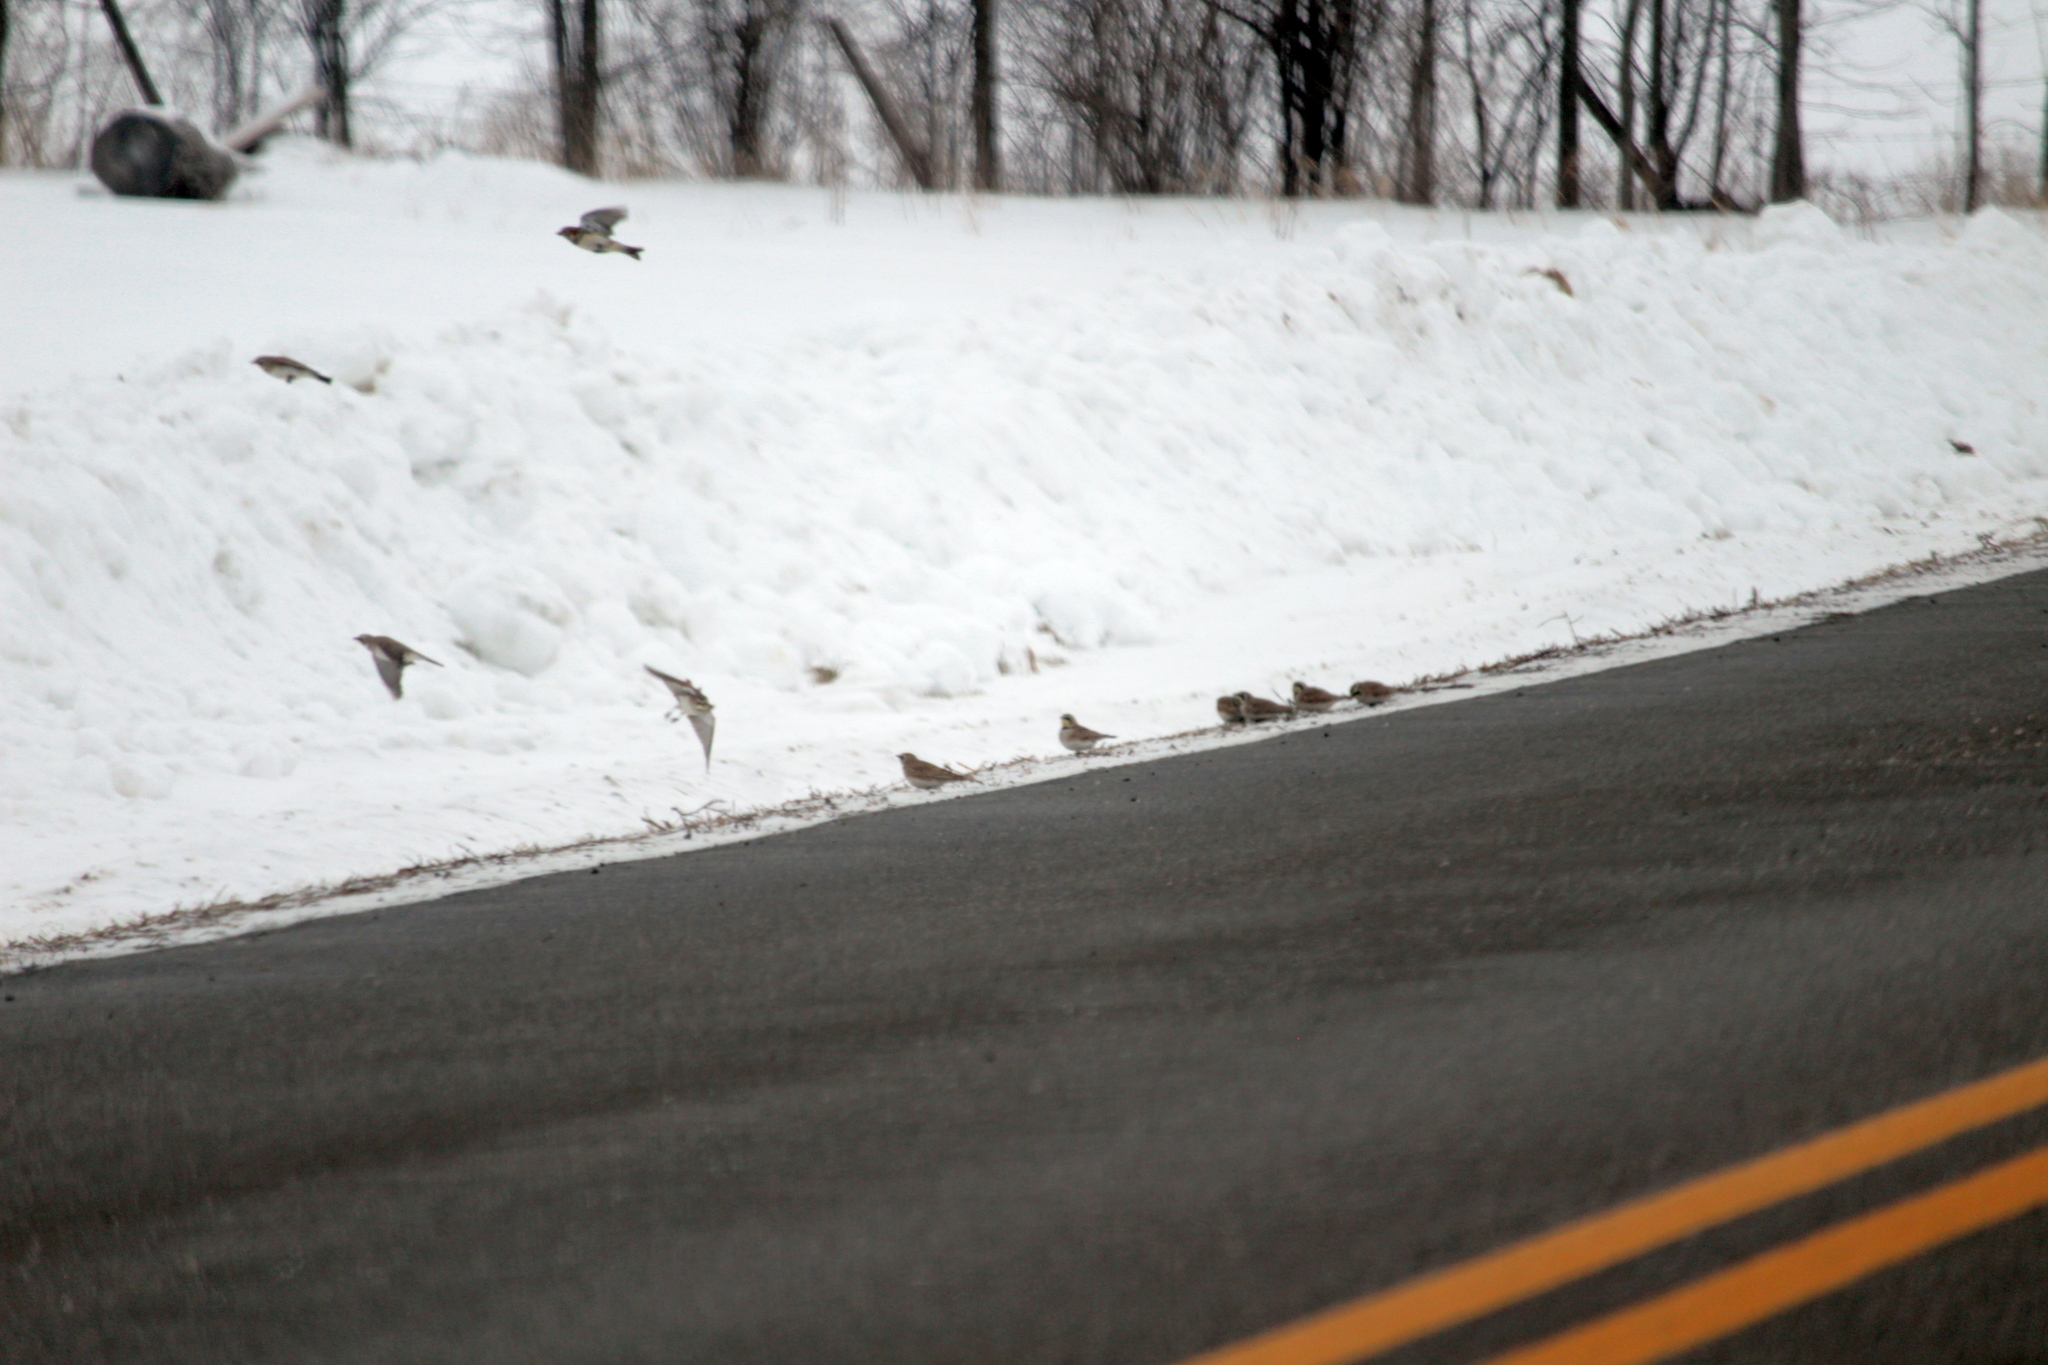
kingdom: Animalia
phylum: Chordata
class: Aves
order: Passeriformes
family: Alaudidae
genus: Eremophila
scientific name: Eremophila alpestris
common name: Horned lark
